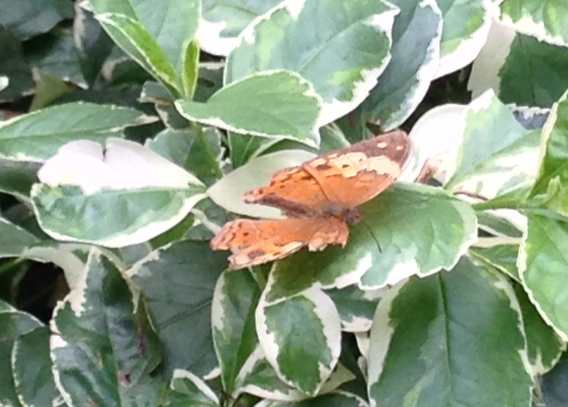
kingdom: Animalia
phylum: Arthropoda
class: Insecta
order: Lepidoptera
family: Nymphalidae
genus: Cupha
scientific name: Cupha erymanthis
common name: Rustic
